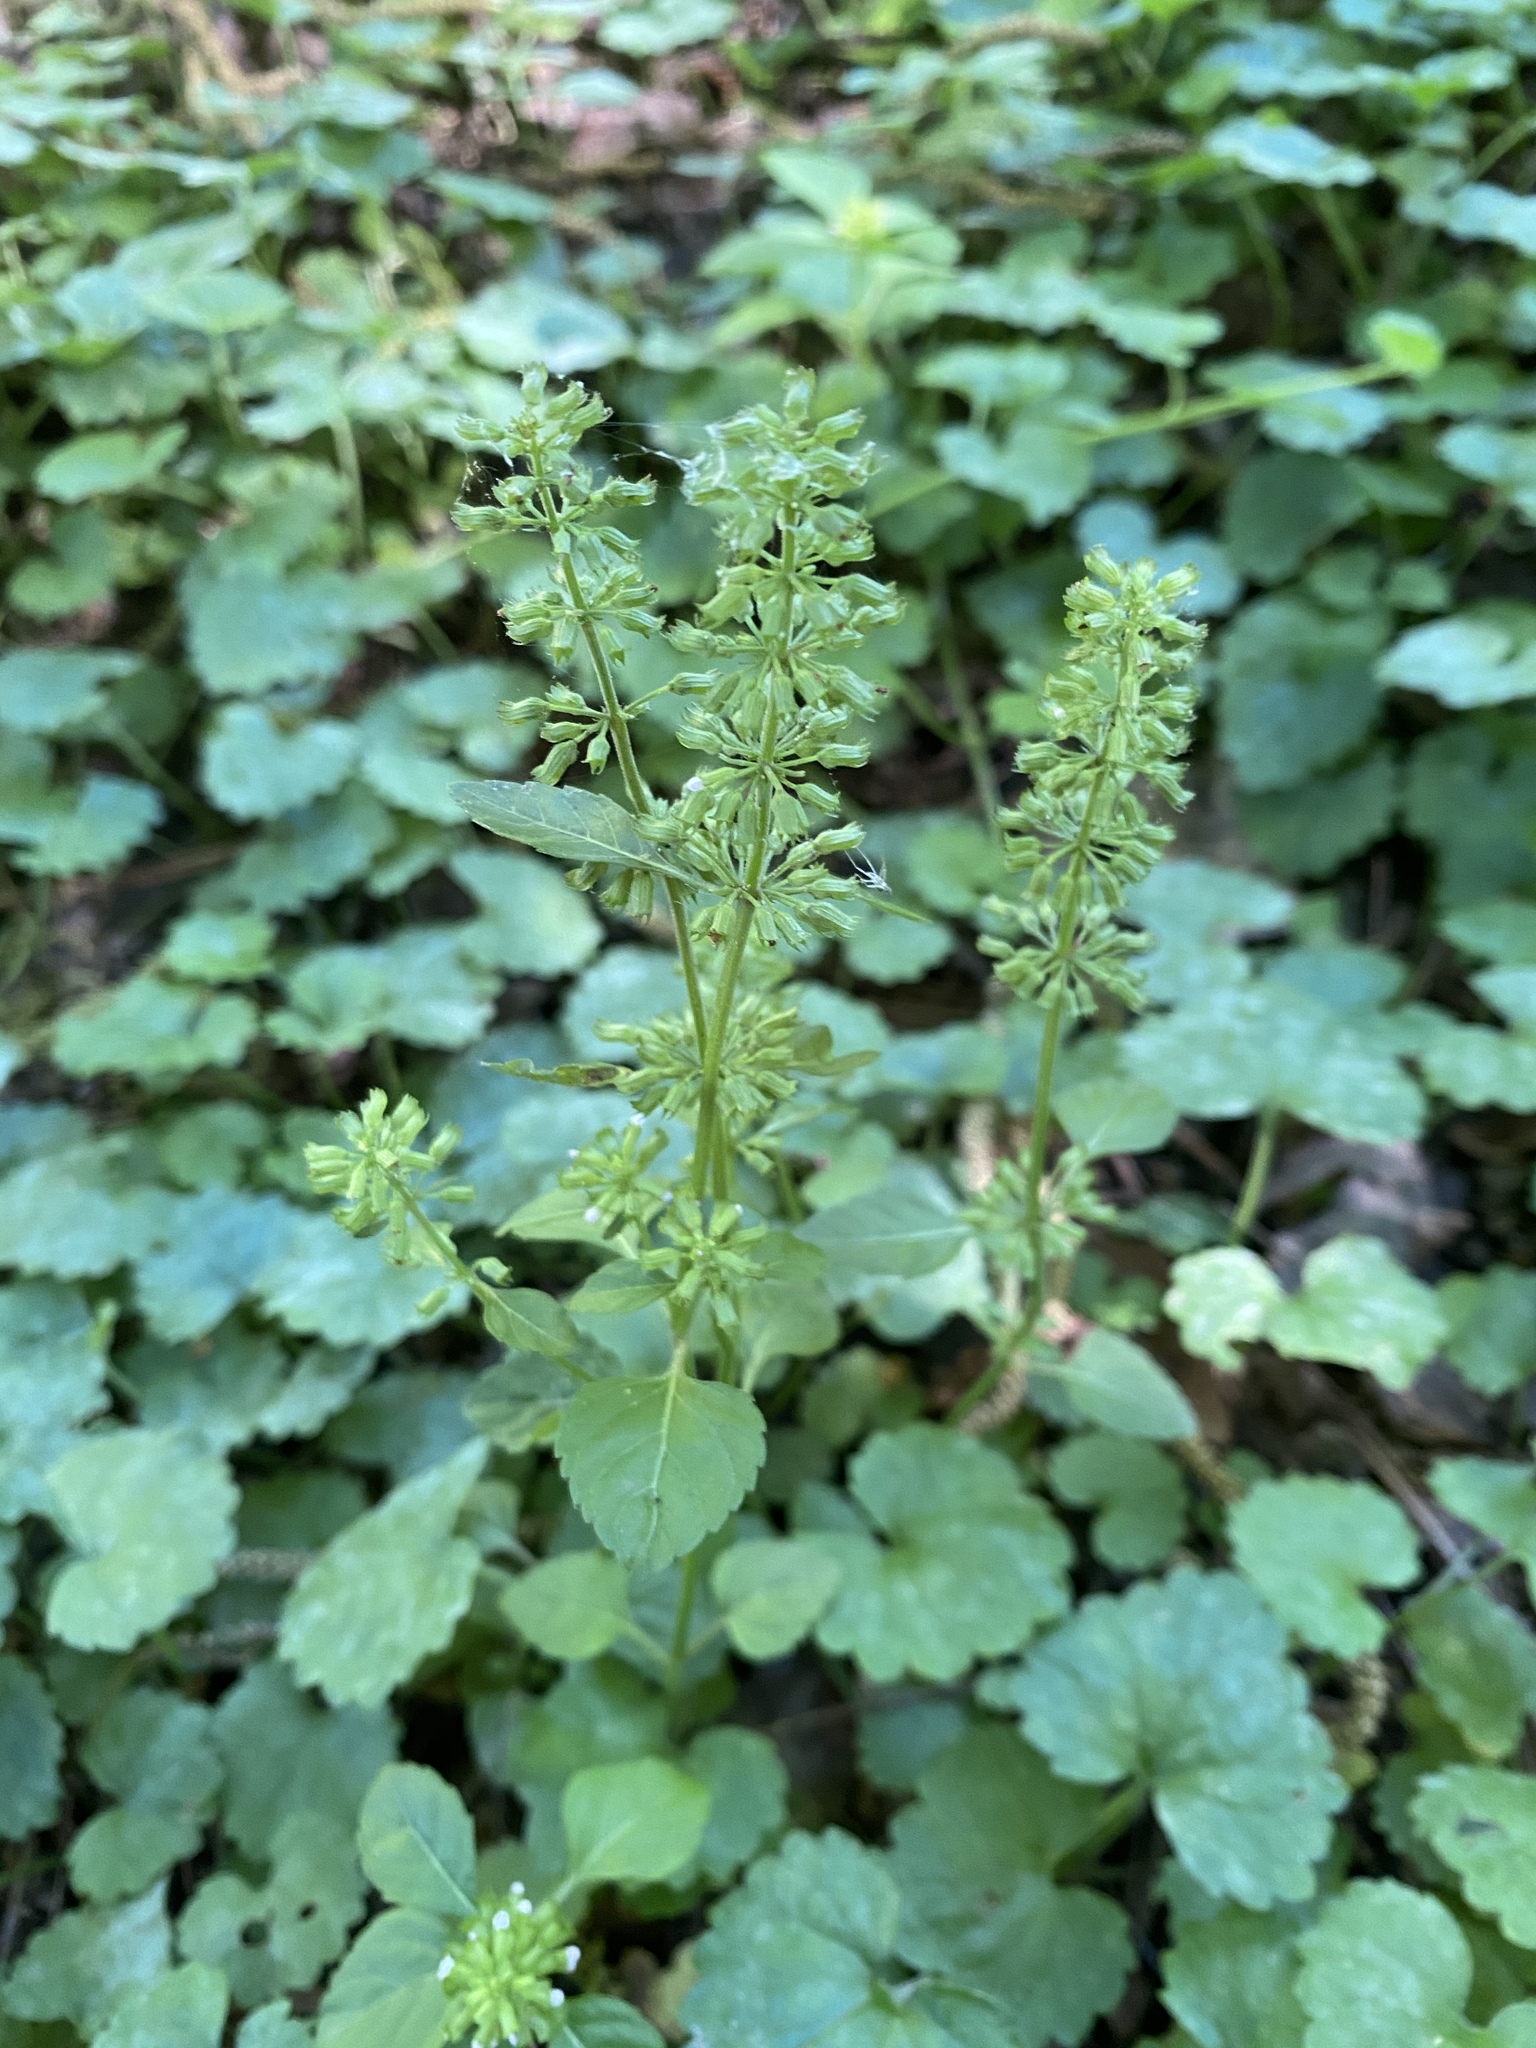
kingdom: Plantae
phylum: Tracheophyta
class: Magnoliopsida
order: Lamiales
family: Lamiaceae
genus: Clinopodium
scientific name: Clinopodium gracile
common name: Slender wild basil
